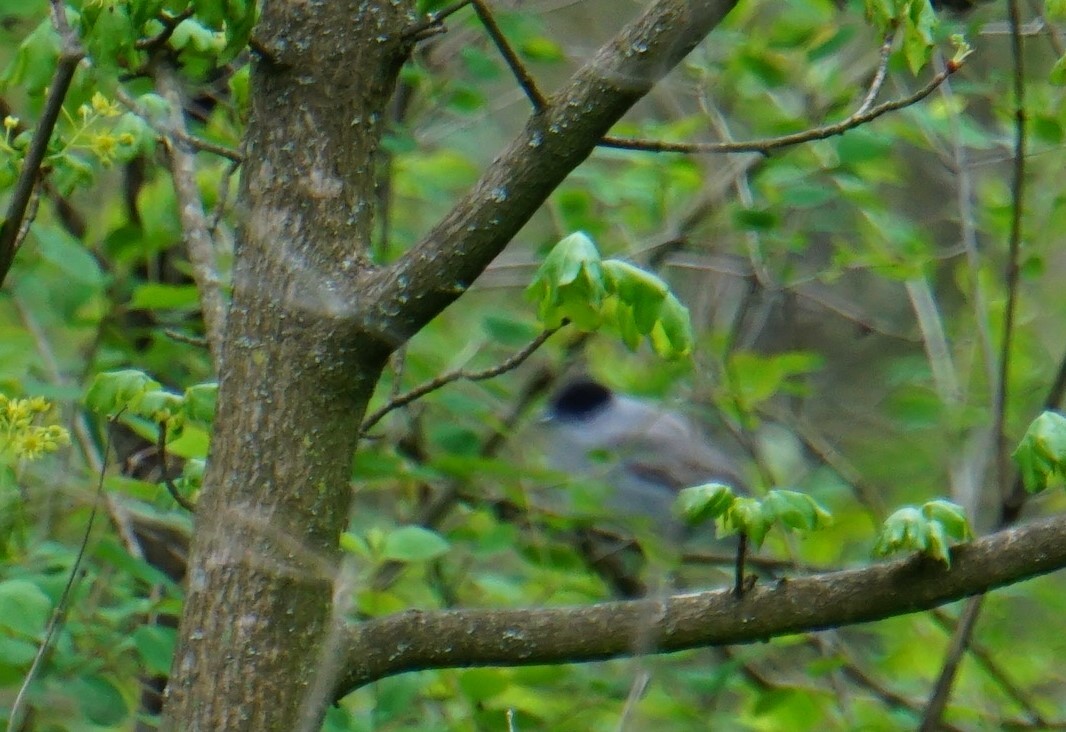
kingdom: Animalia
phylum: Chordata
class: Aves
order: Passeriformes
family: Sylviidae
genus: Sylvia
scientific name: Sylvia atricapilla
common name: Eurasian blackcap
